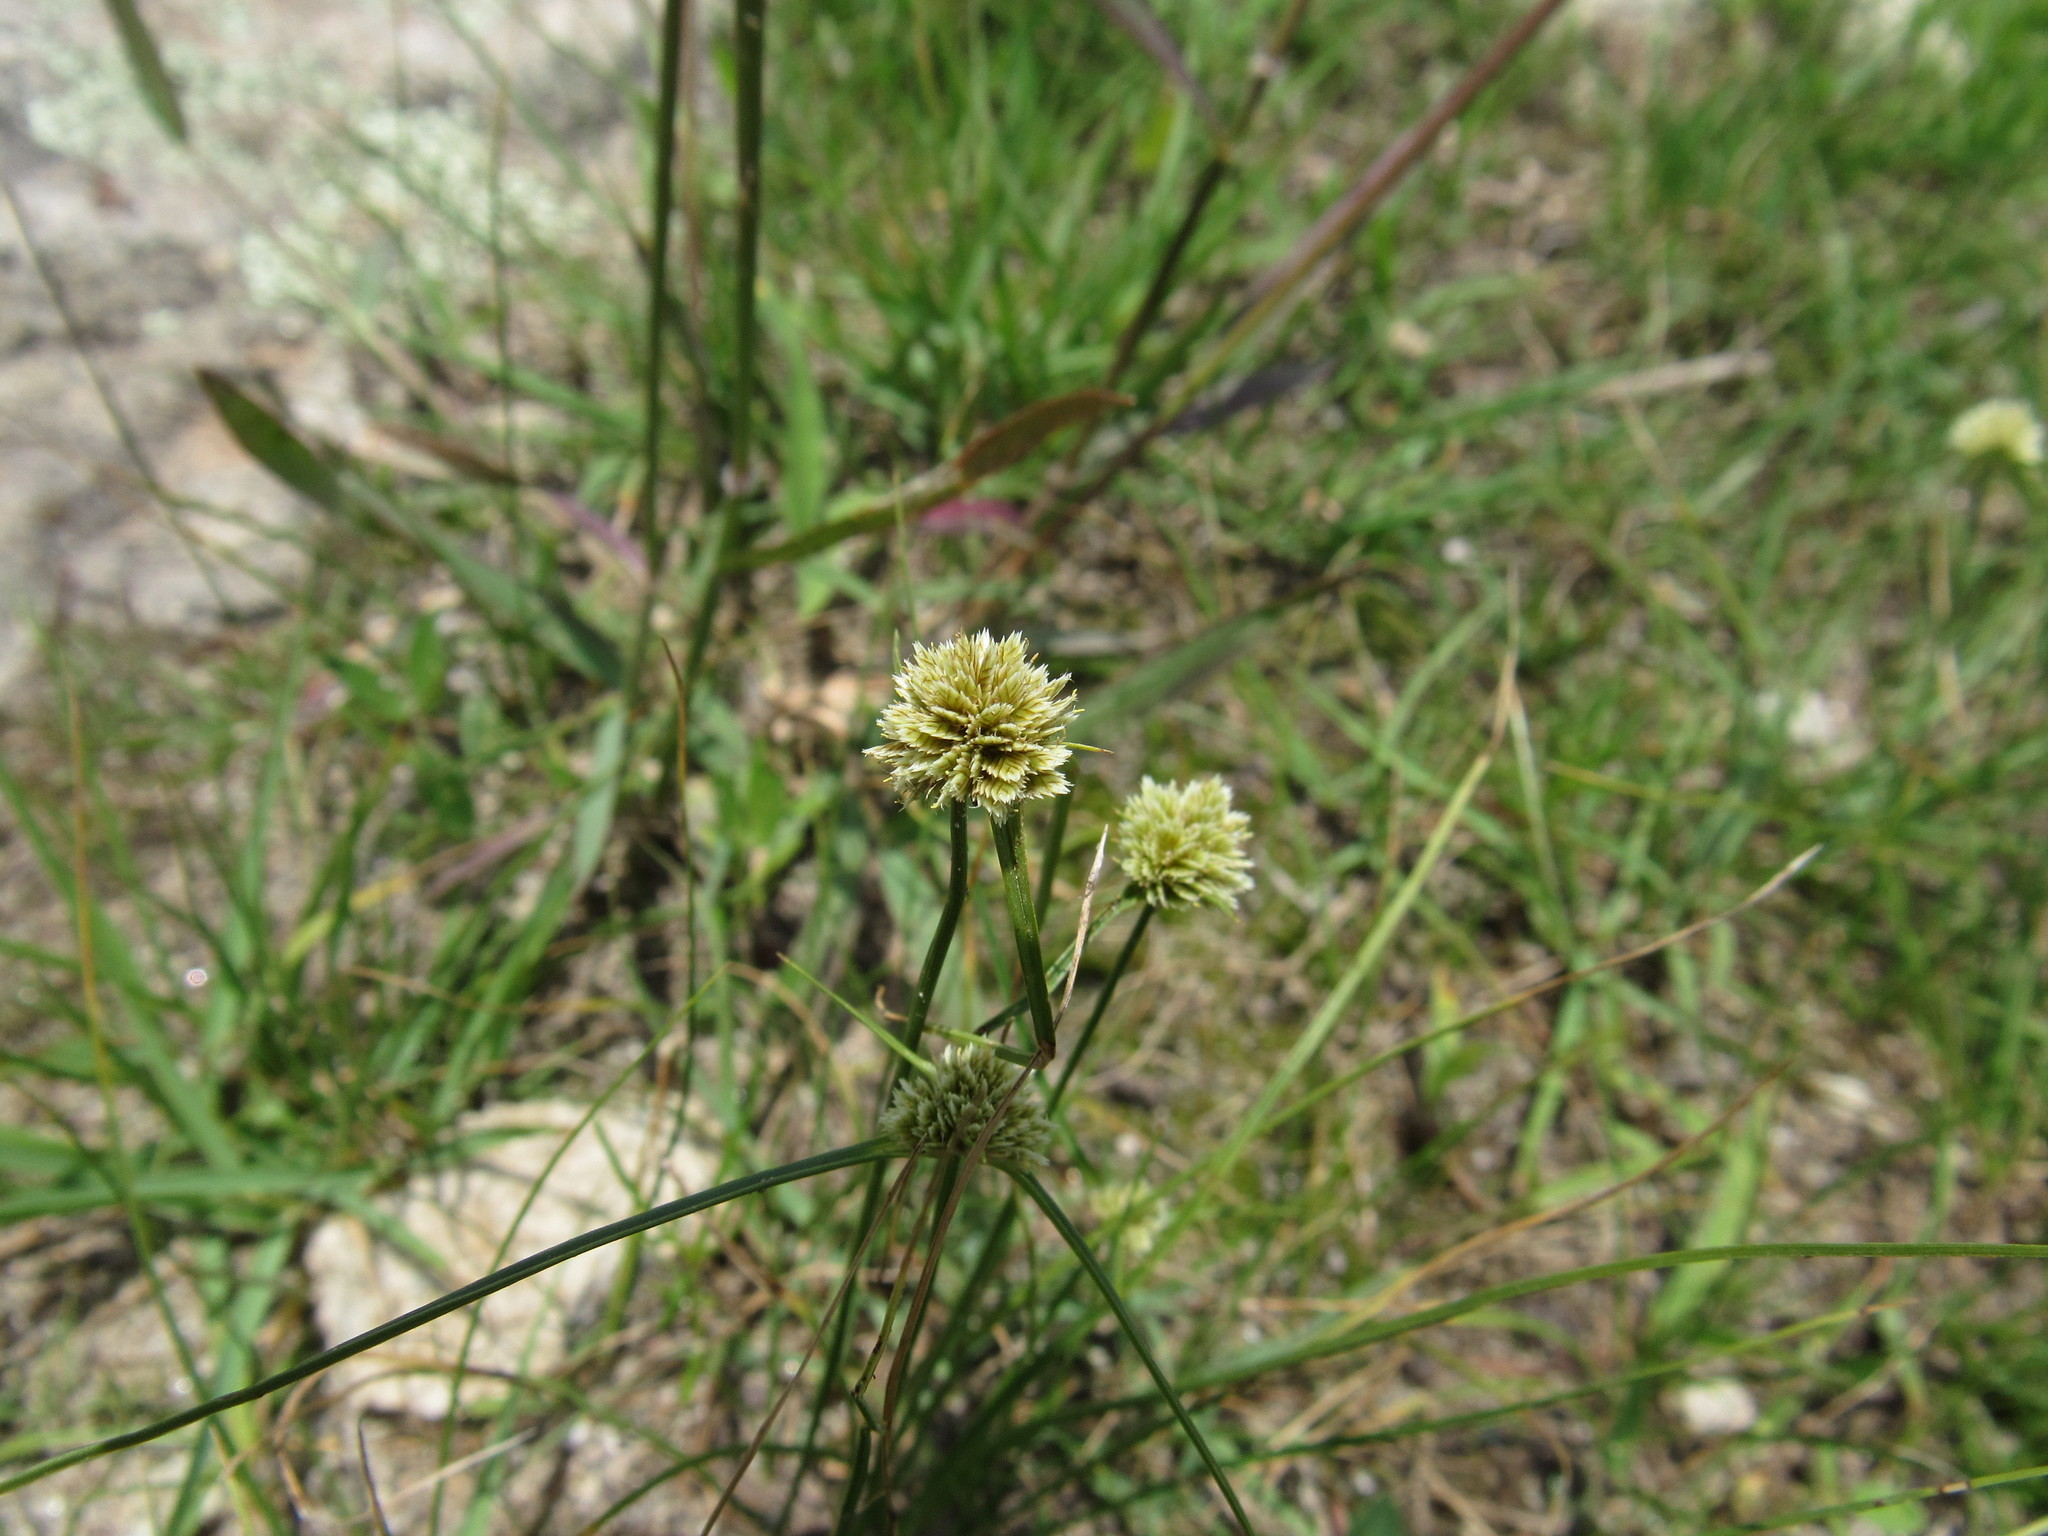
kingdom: Plantae
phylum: Tracheophyta
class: Liliopsida
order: Poales
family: Cyperaceae
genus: Cyperus
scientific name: Cyperus seslerioides
